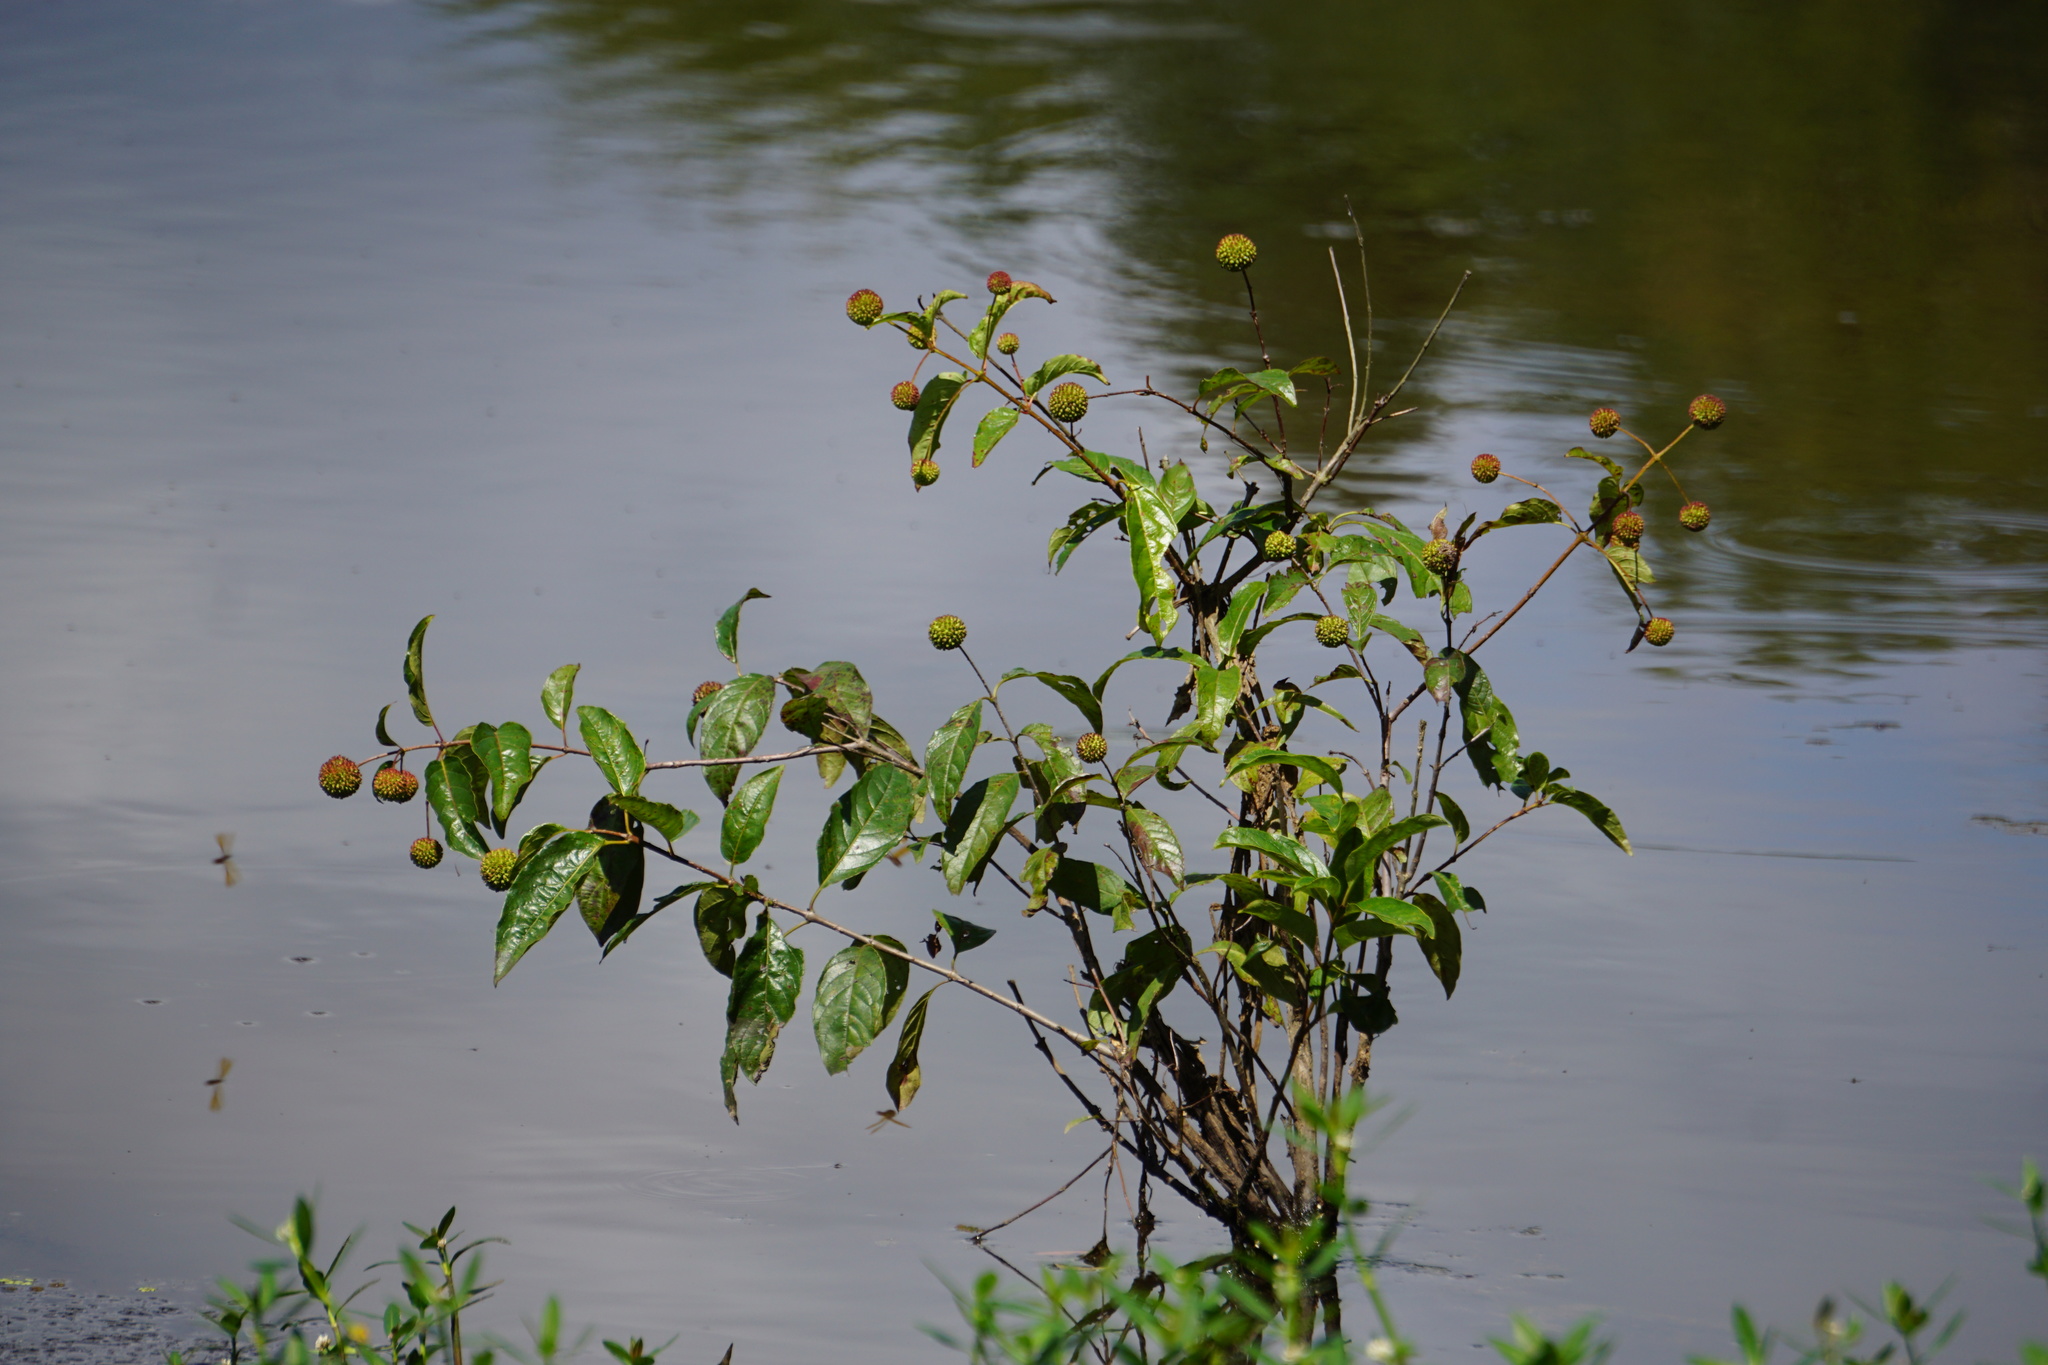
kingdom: Plantae
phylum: Tracheophyta
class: Magnoliopsida
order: Gentianales
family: Rubiaceae
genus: Cephalanthus
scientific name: Cephalanthus occidentalis
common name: Button-willow
